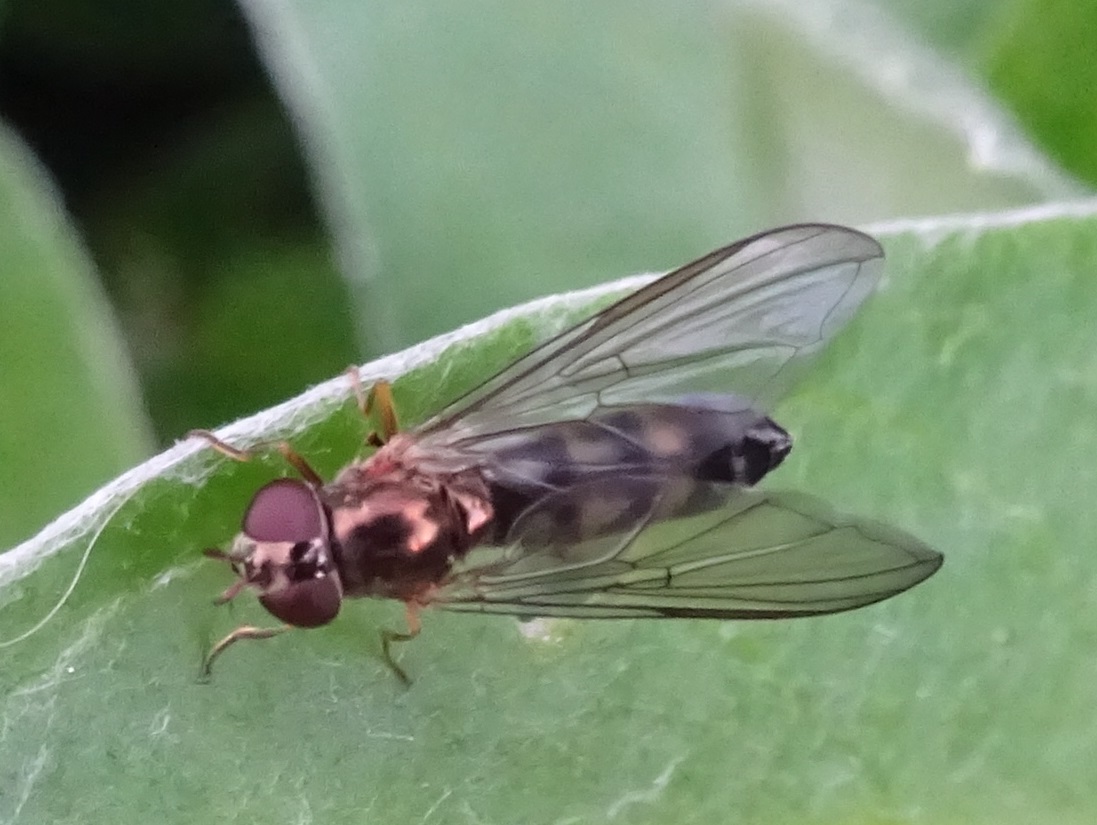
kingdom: Animalia
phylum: Arthropoda
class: Insecta
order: Diptera
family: Syrphidae
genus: Melanostoma
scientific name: Melanostoma scalare
